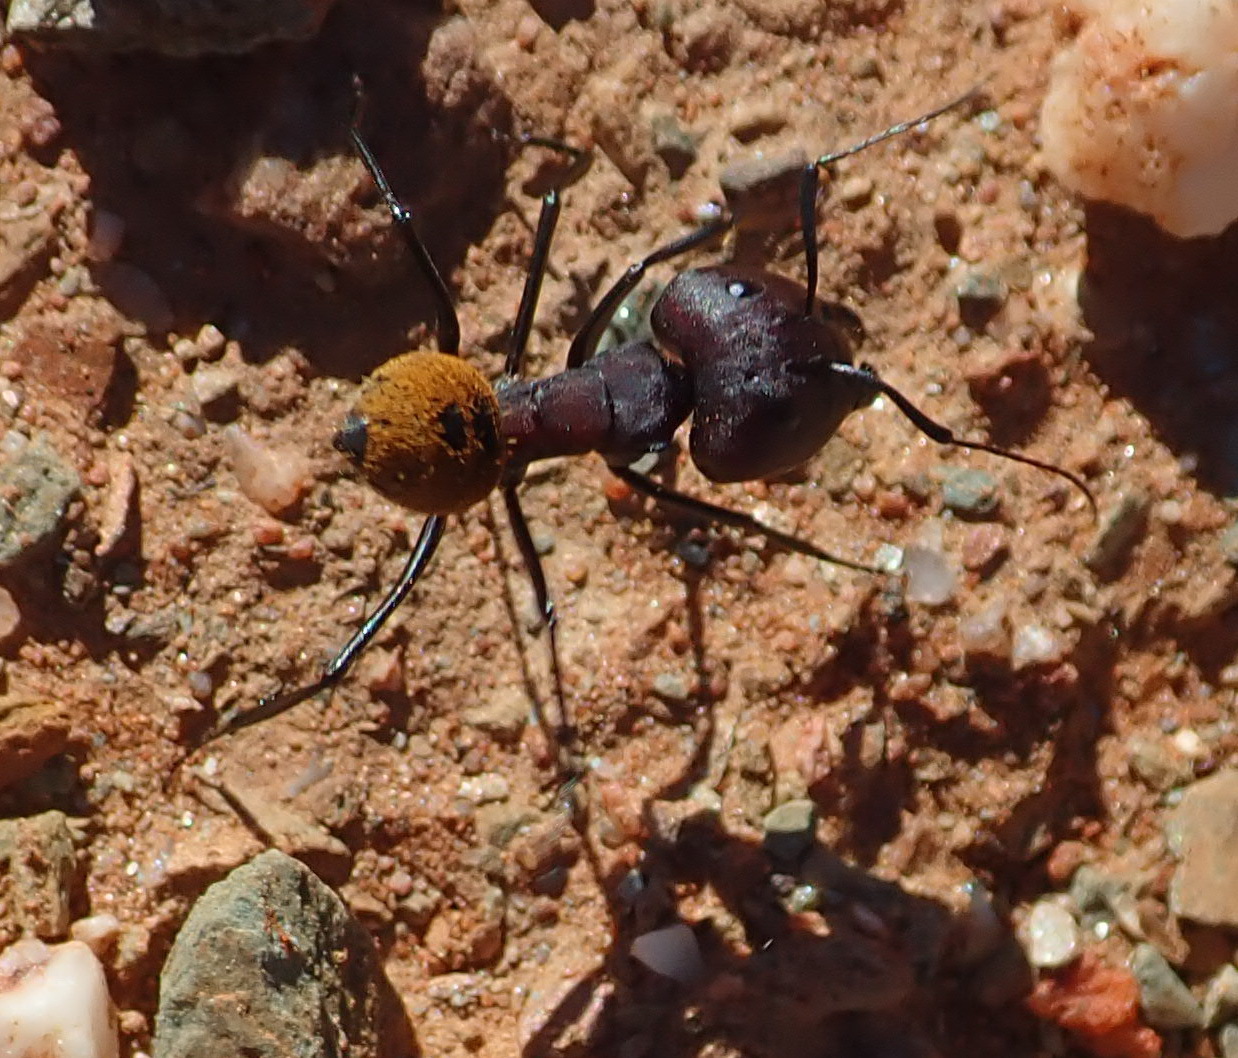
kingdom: Animalia
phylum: Arthropoda
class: Insecta
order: Hymenoptera
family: Formicidae
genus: Camponotus
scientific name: Camponotus fulvopilosus
